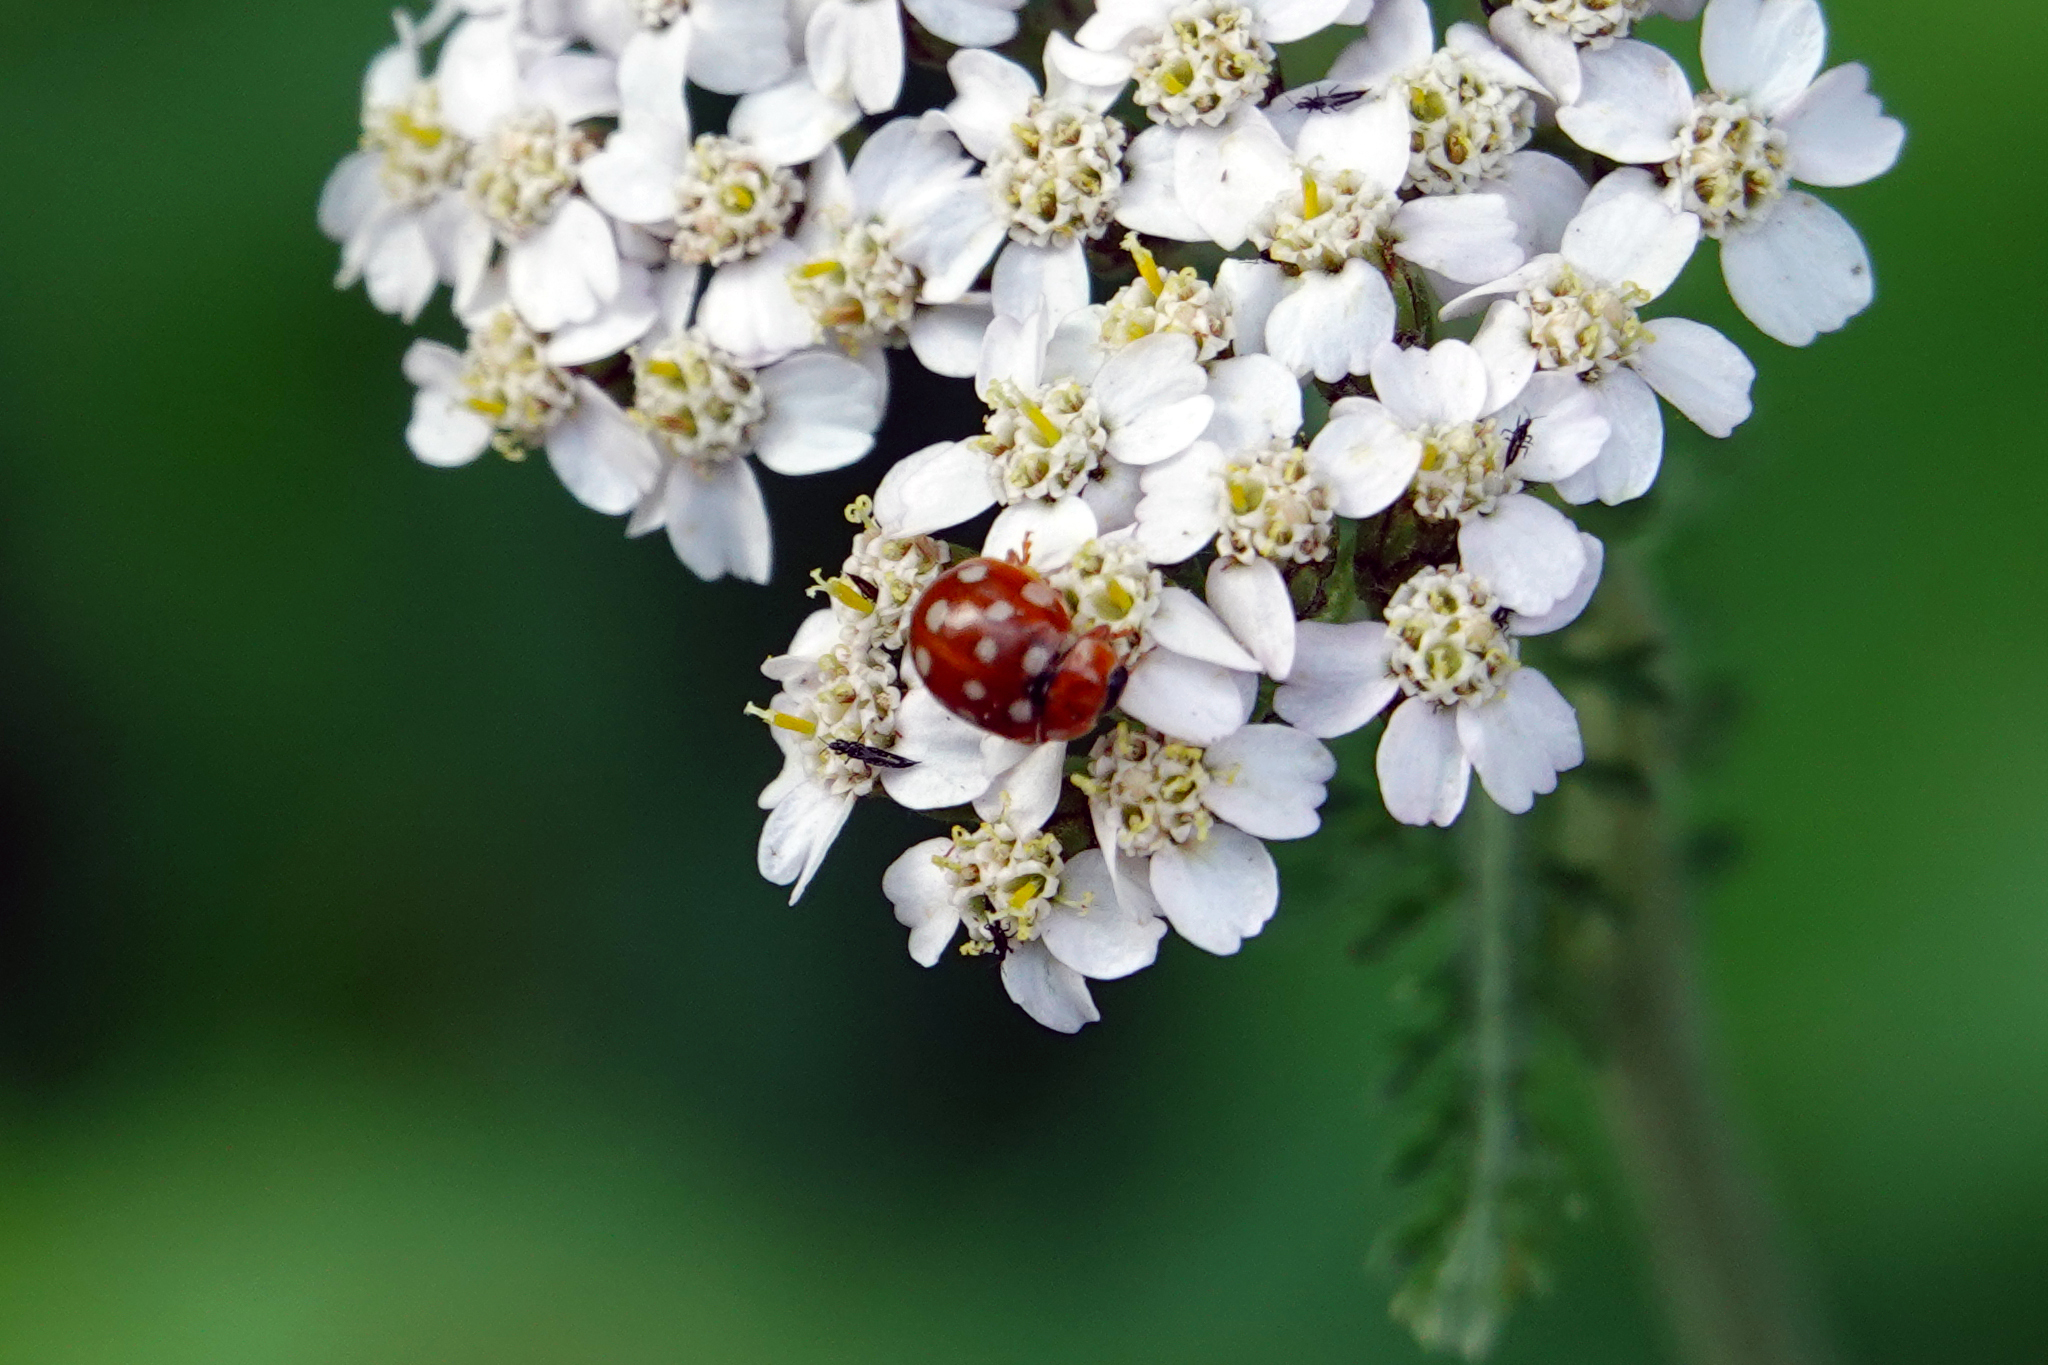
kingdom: Animalia
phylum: Arthropoda
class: Insecta
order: Coleoptera
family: Coccinellidae
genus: Calvia
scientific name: Calvia quatuordecimguttata
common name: Cream-spot ladybird
